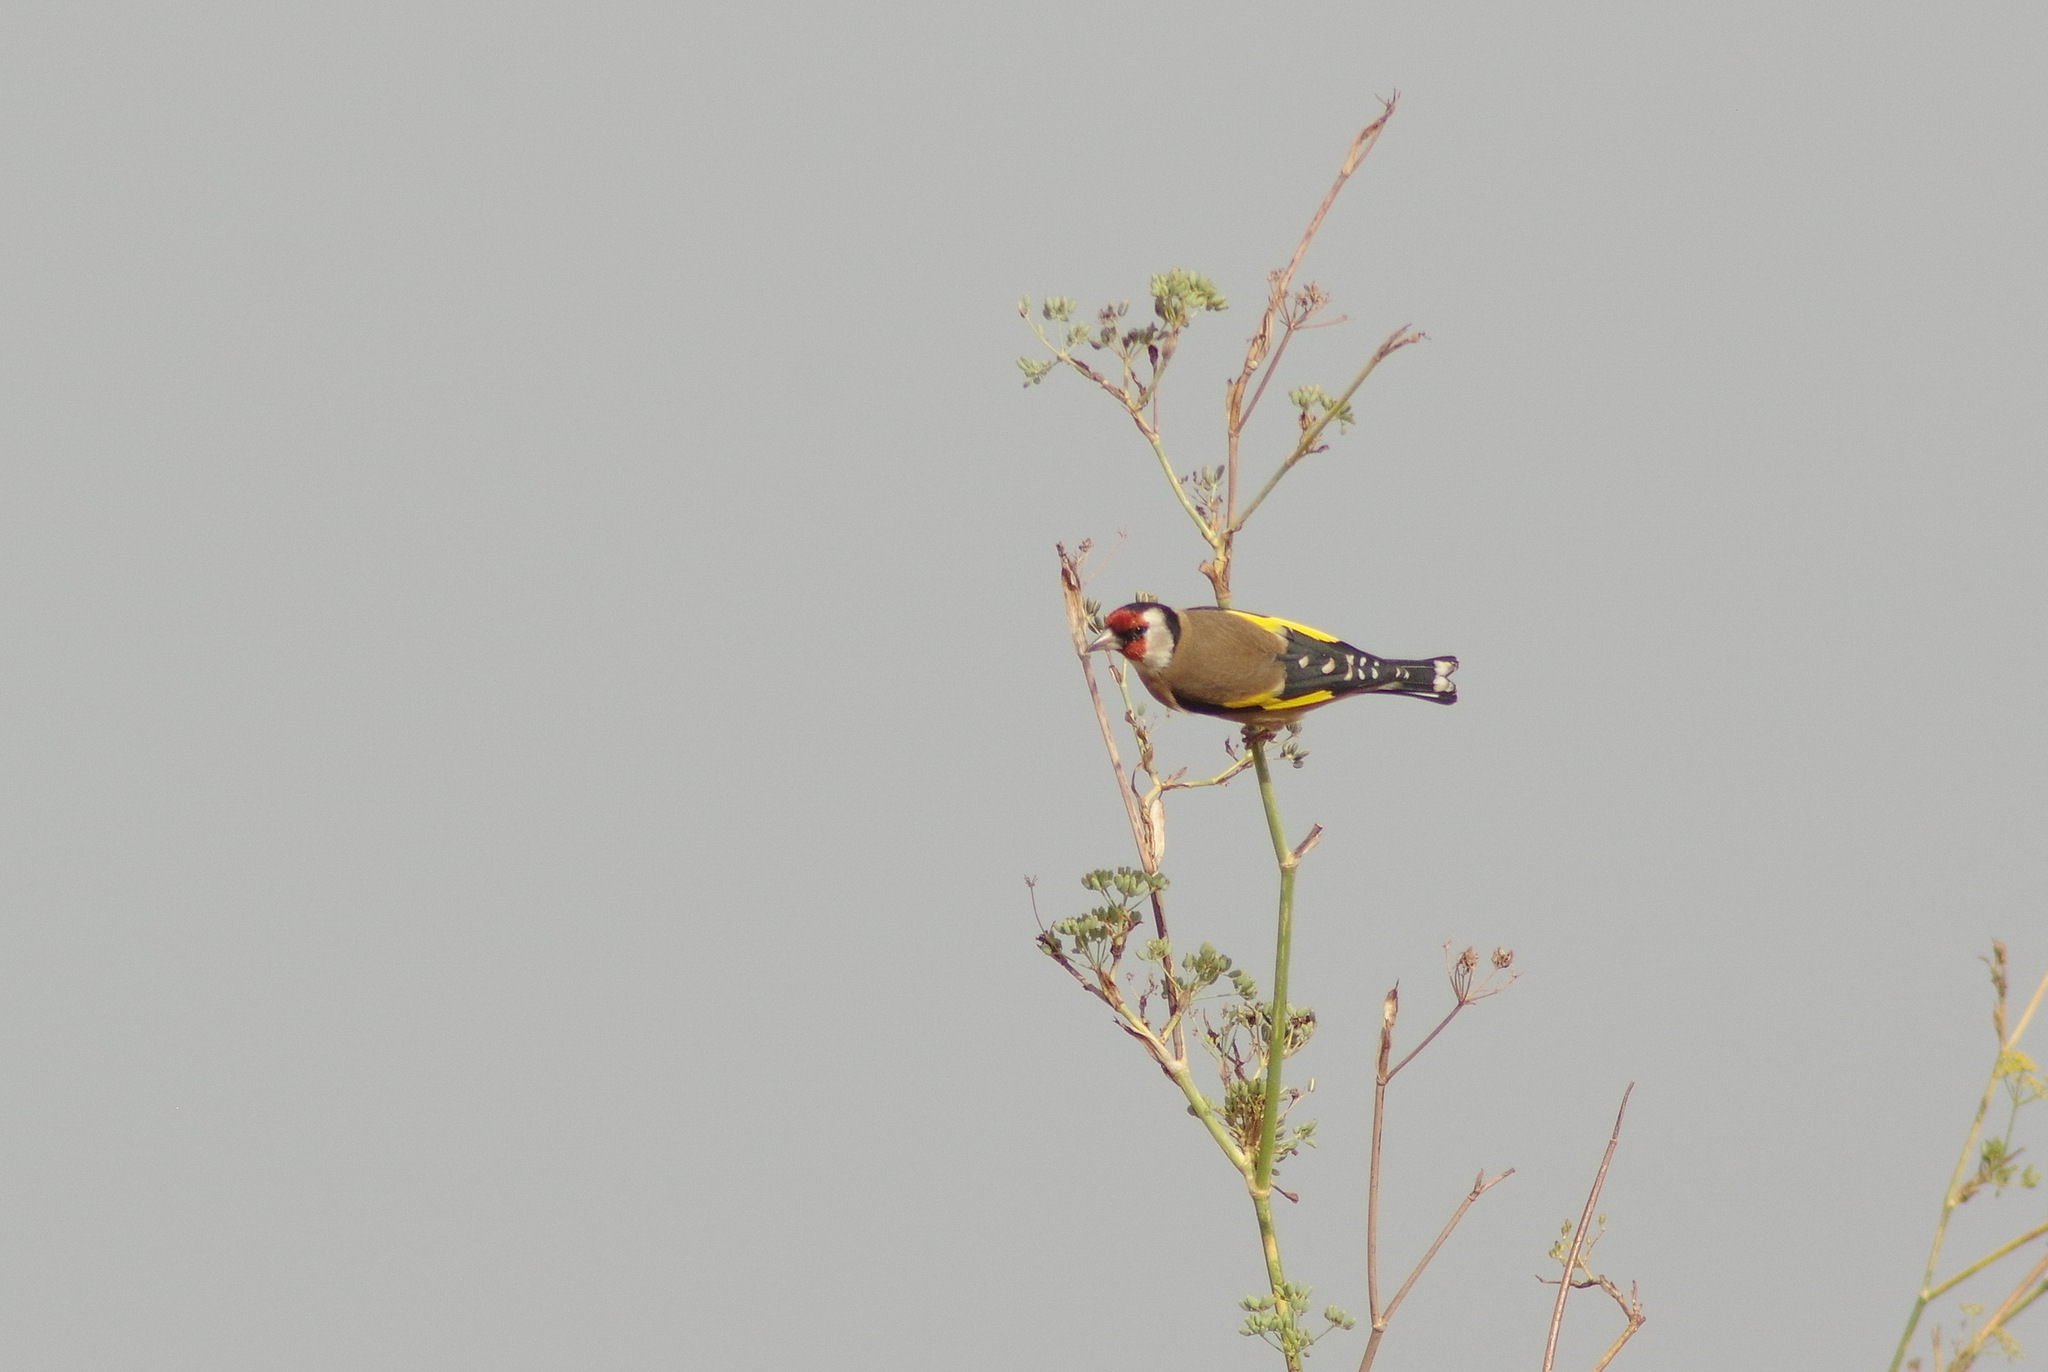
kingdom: Animalia
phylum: Chordata
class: Aves
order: Passeriformes
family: Fringillidae
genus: Carduelis
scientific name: Carduelis carduelis
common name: European goldfinch
